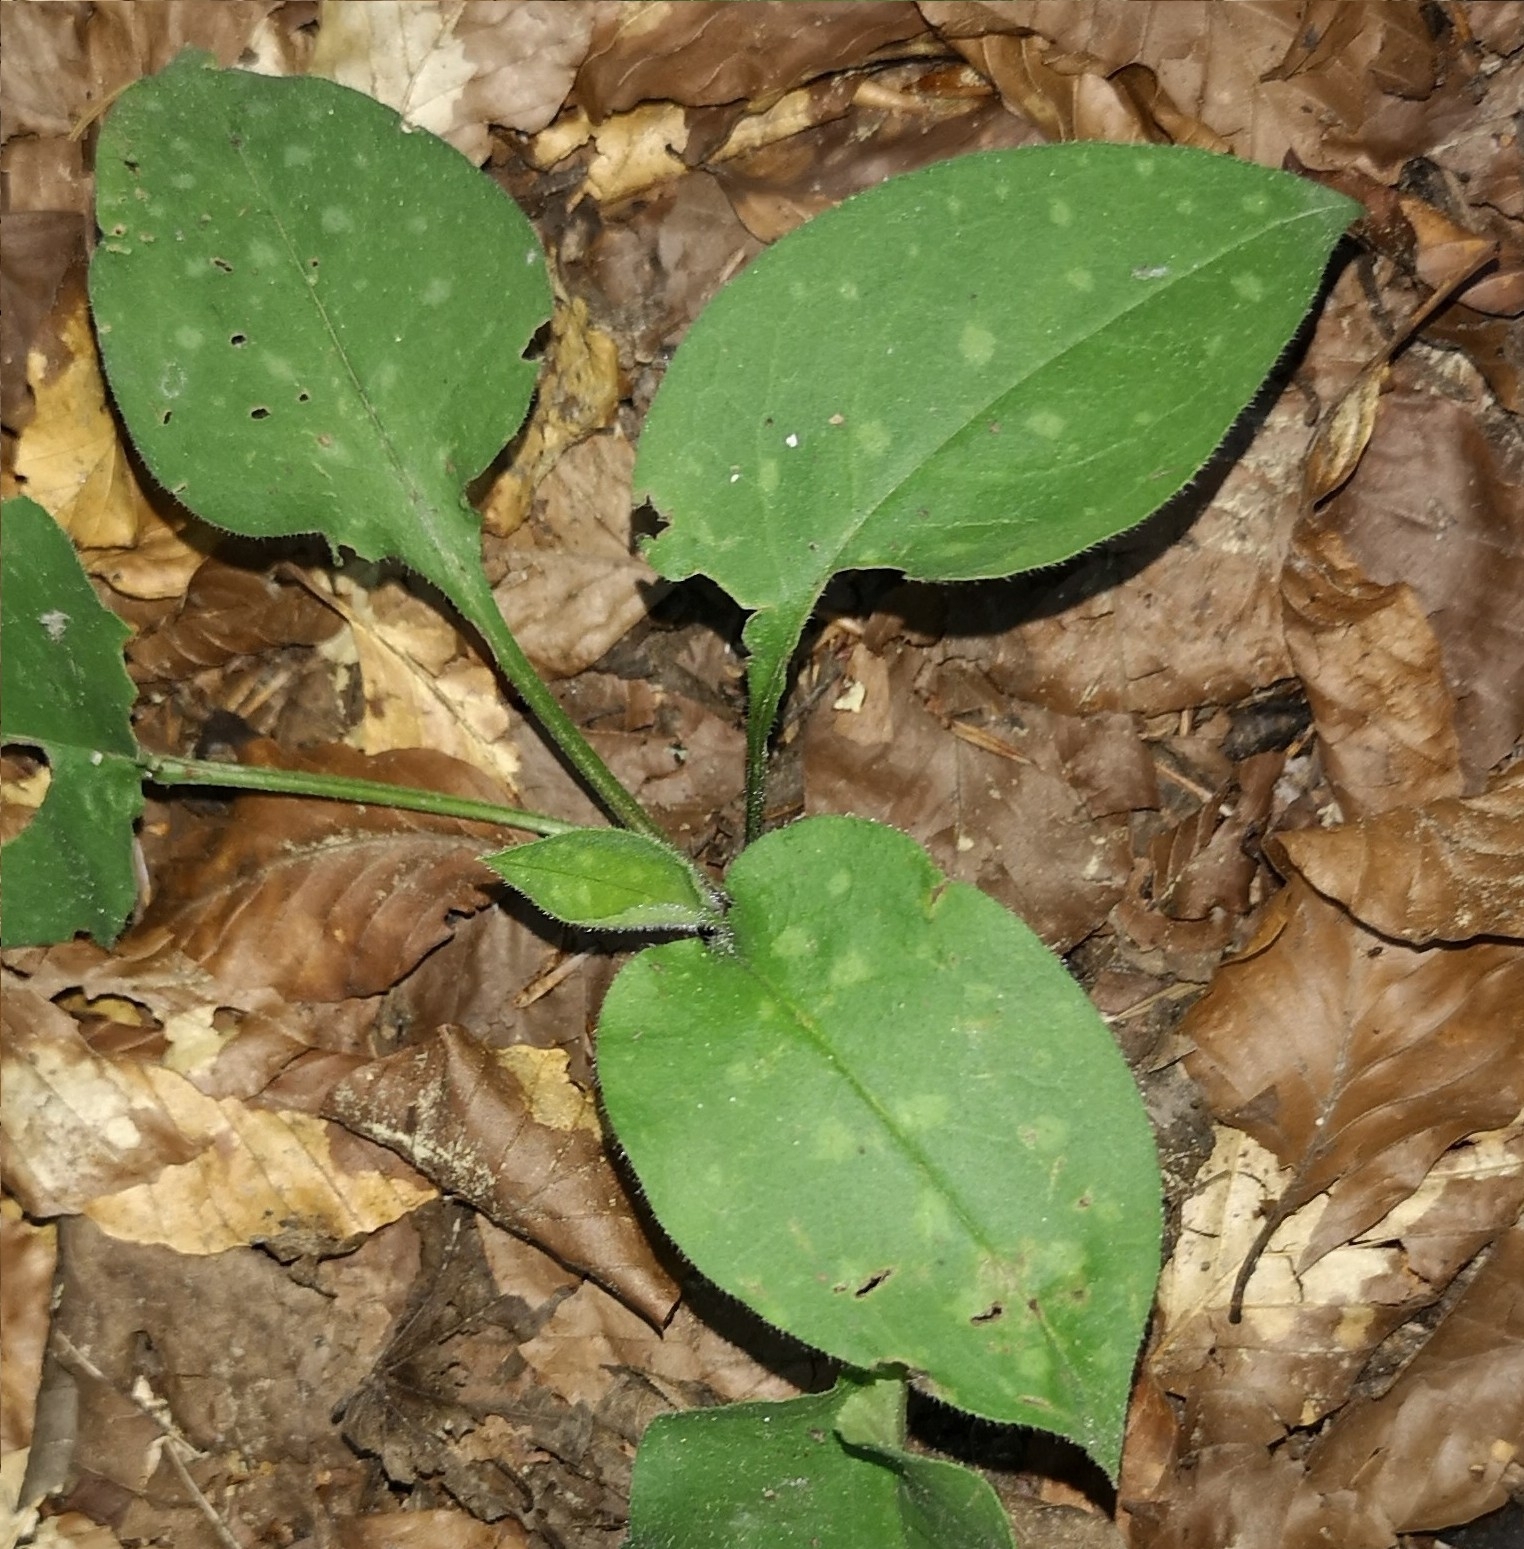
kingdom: Plantae
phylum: Tracheophyta
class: Magnoliopsida
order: Boraginales
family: Boraginaceae
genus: Pulmonaria
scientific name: Pulmonaria officinalis
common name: Lungwort
